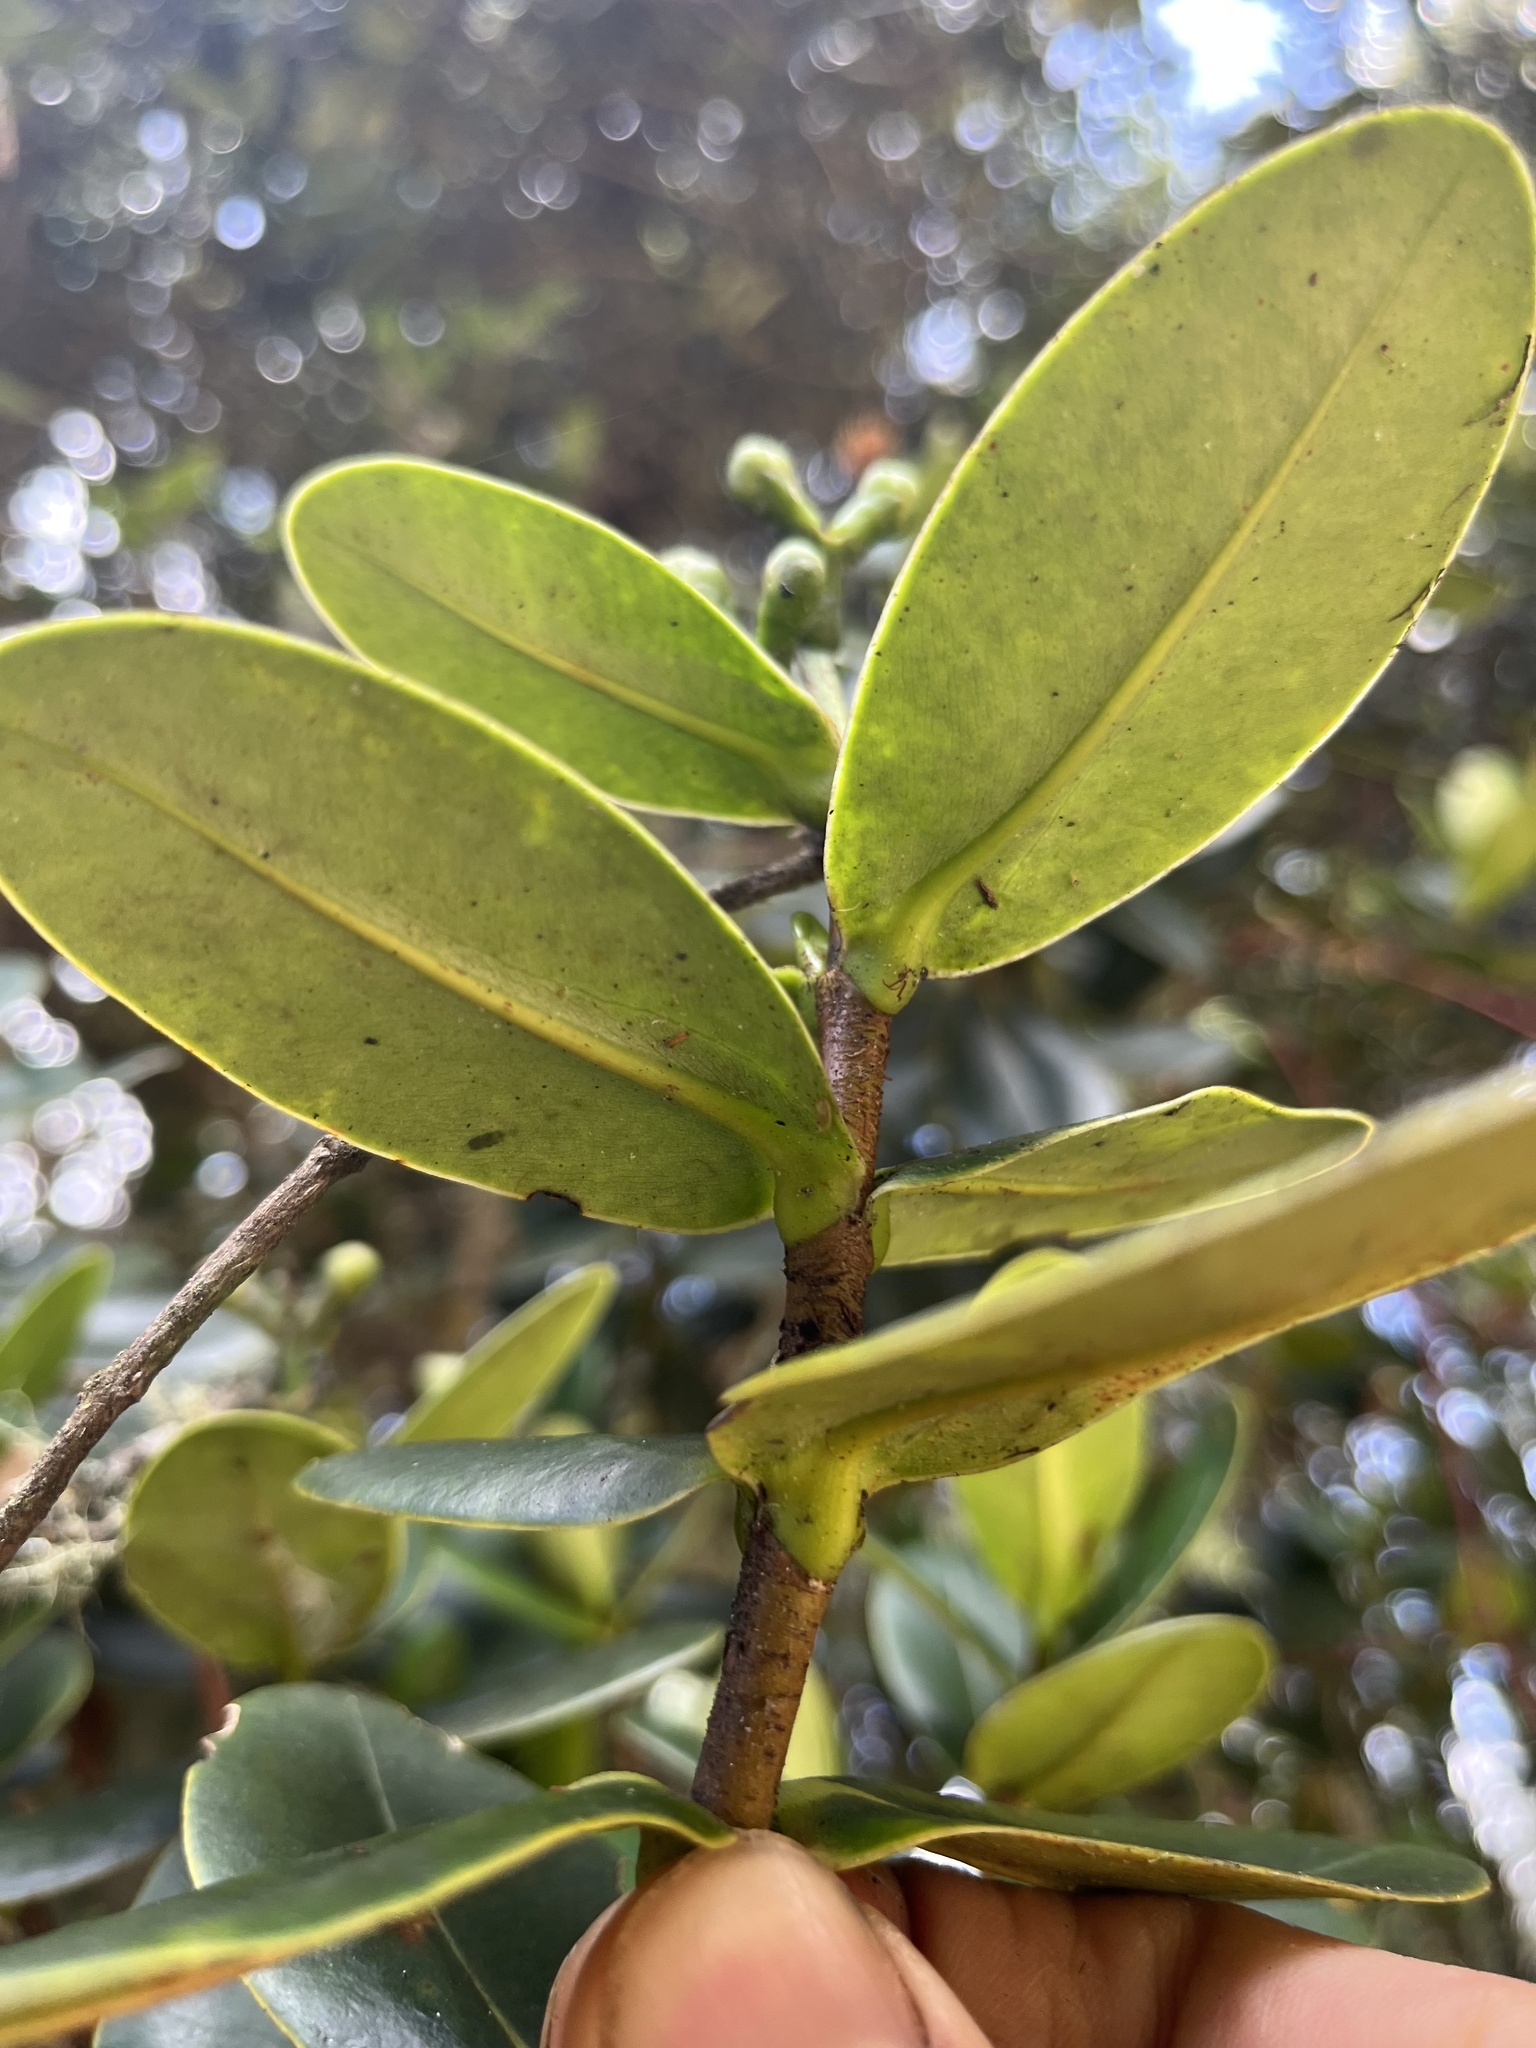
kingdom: Plantae
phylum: Tracheophyta
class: Magnoliopsida
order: Malpighiales
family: Clusiaceae
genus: Clusia
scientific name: Clusia elliptica
